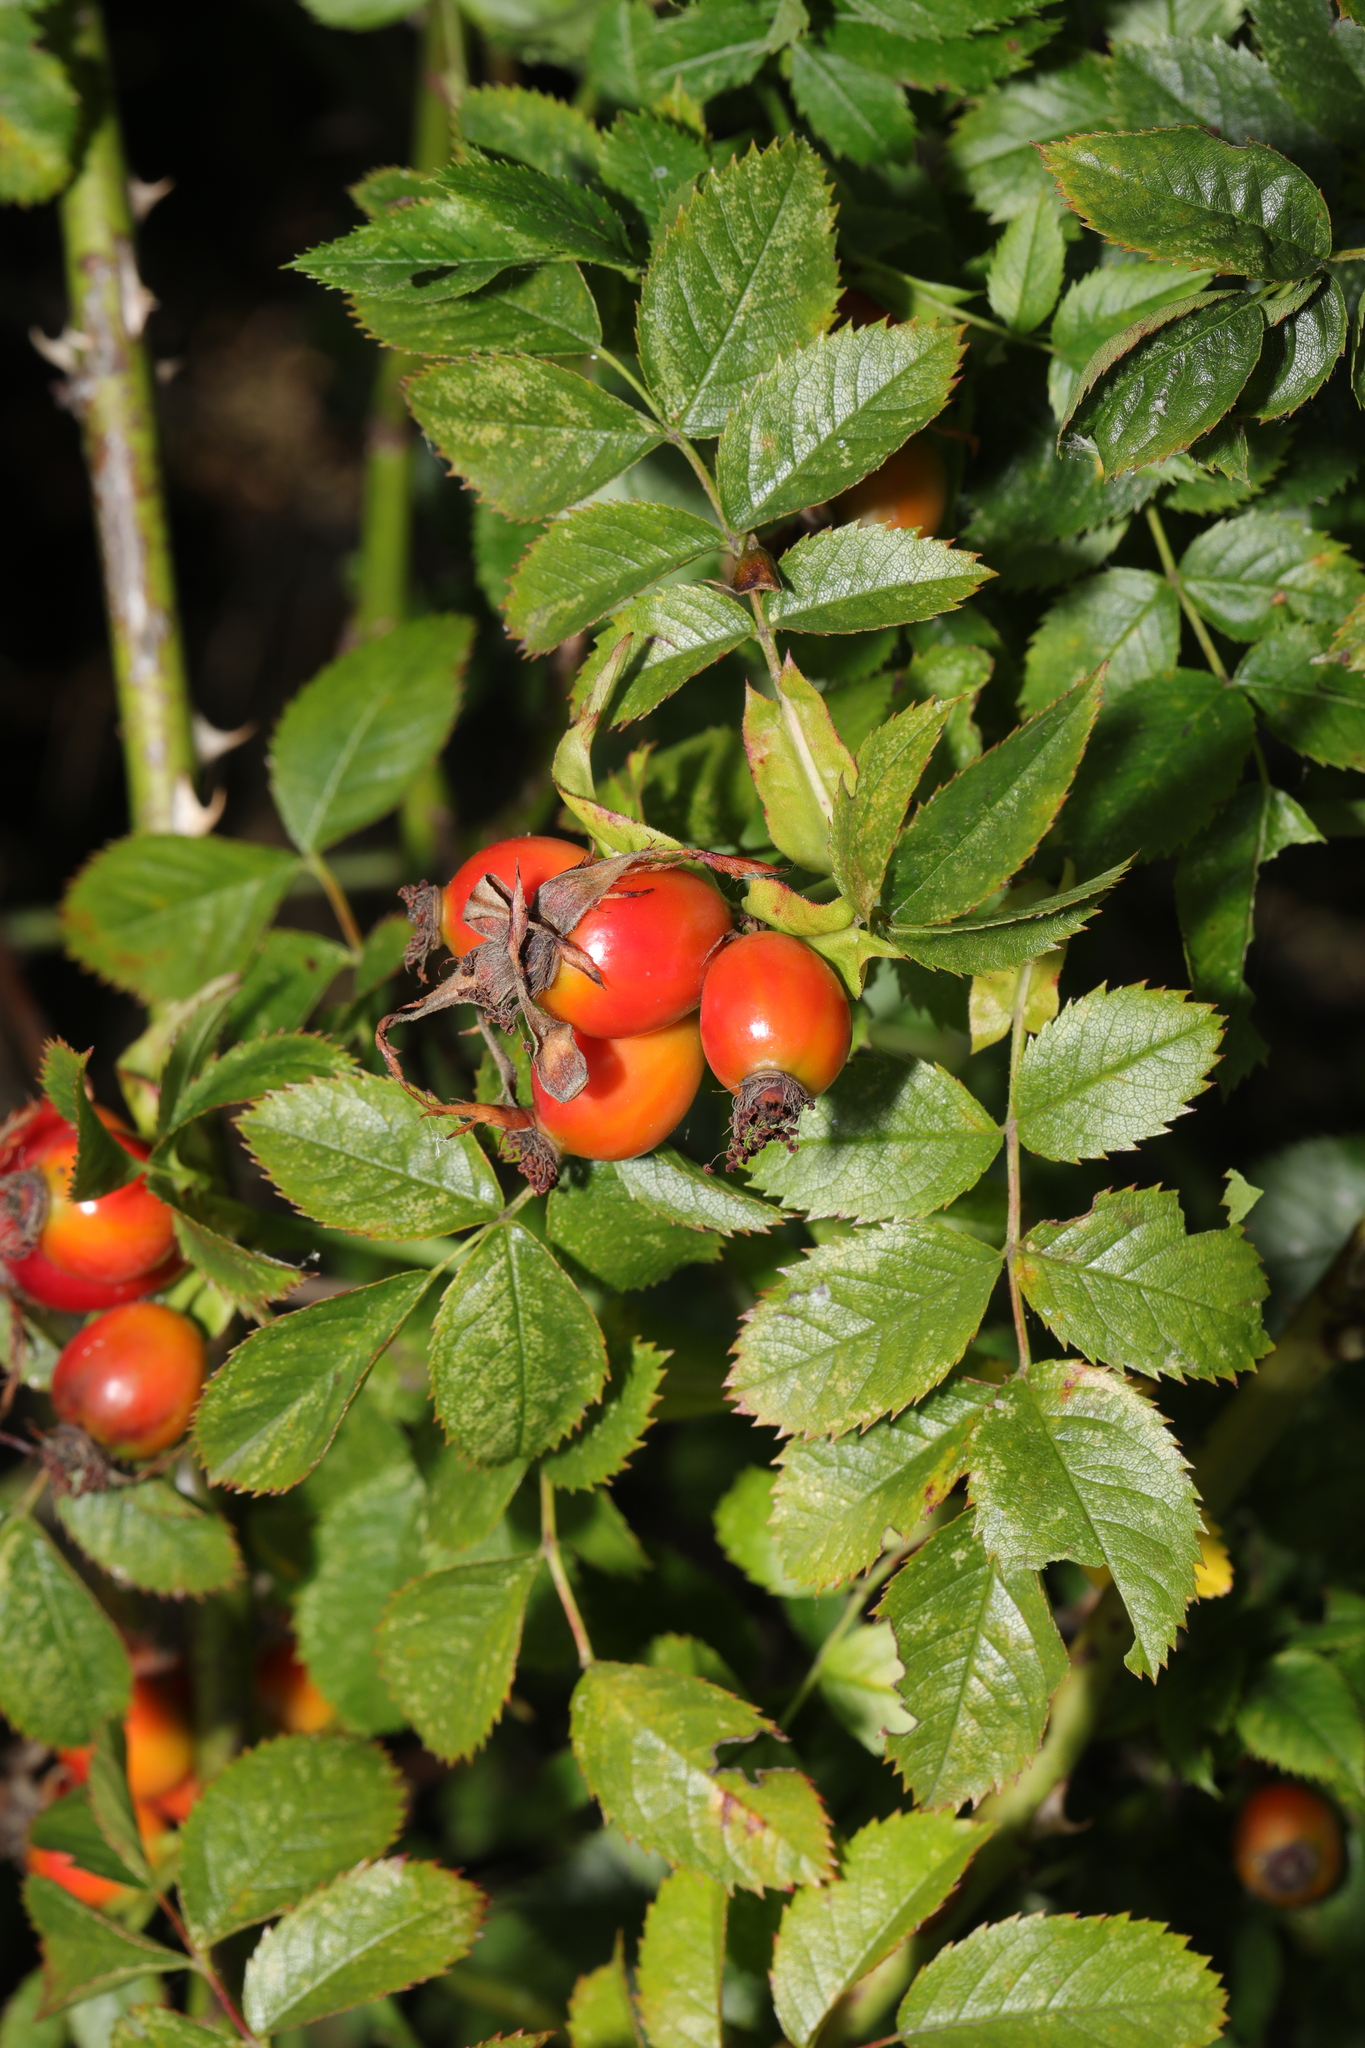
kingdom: Plantae
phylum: Tracheophyta
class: Magnoliopsida
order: Rosales
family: Rosaceae
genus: Rosa
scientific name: Rosa canina
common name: Dog rose
